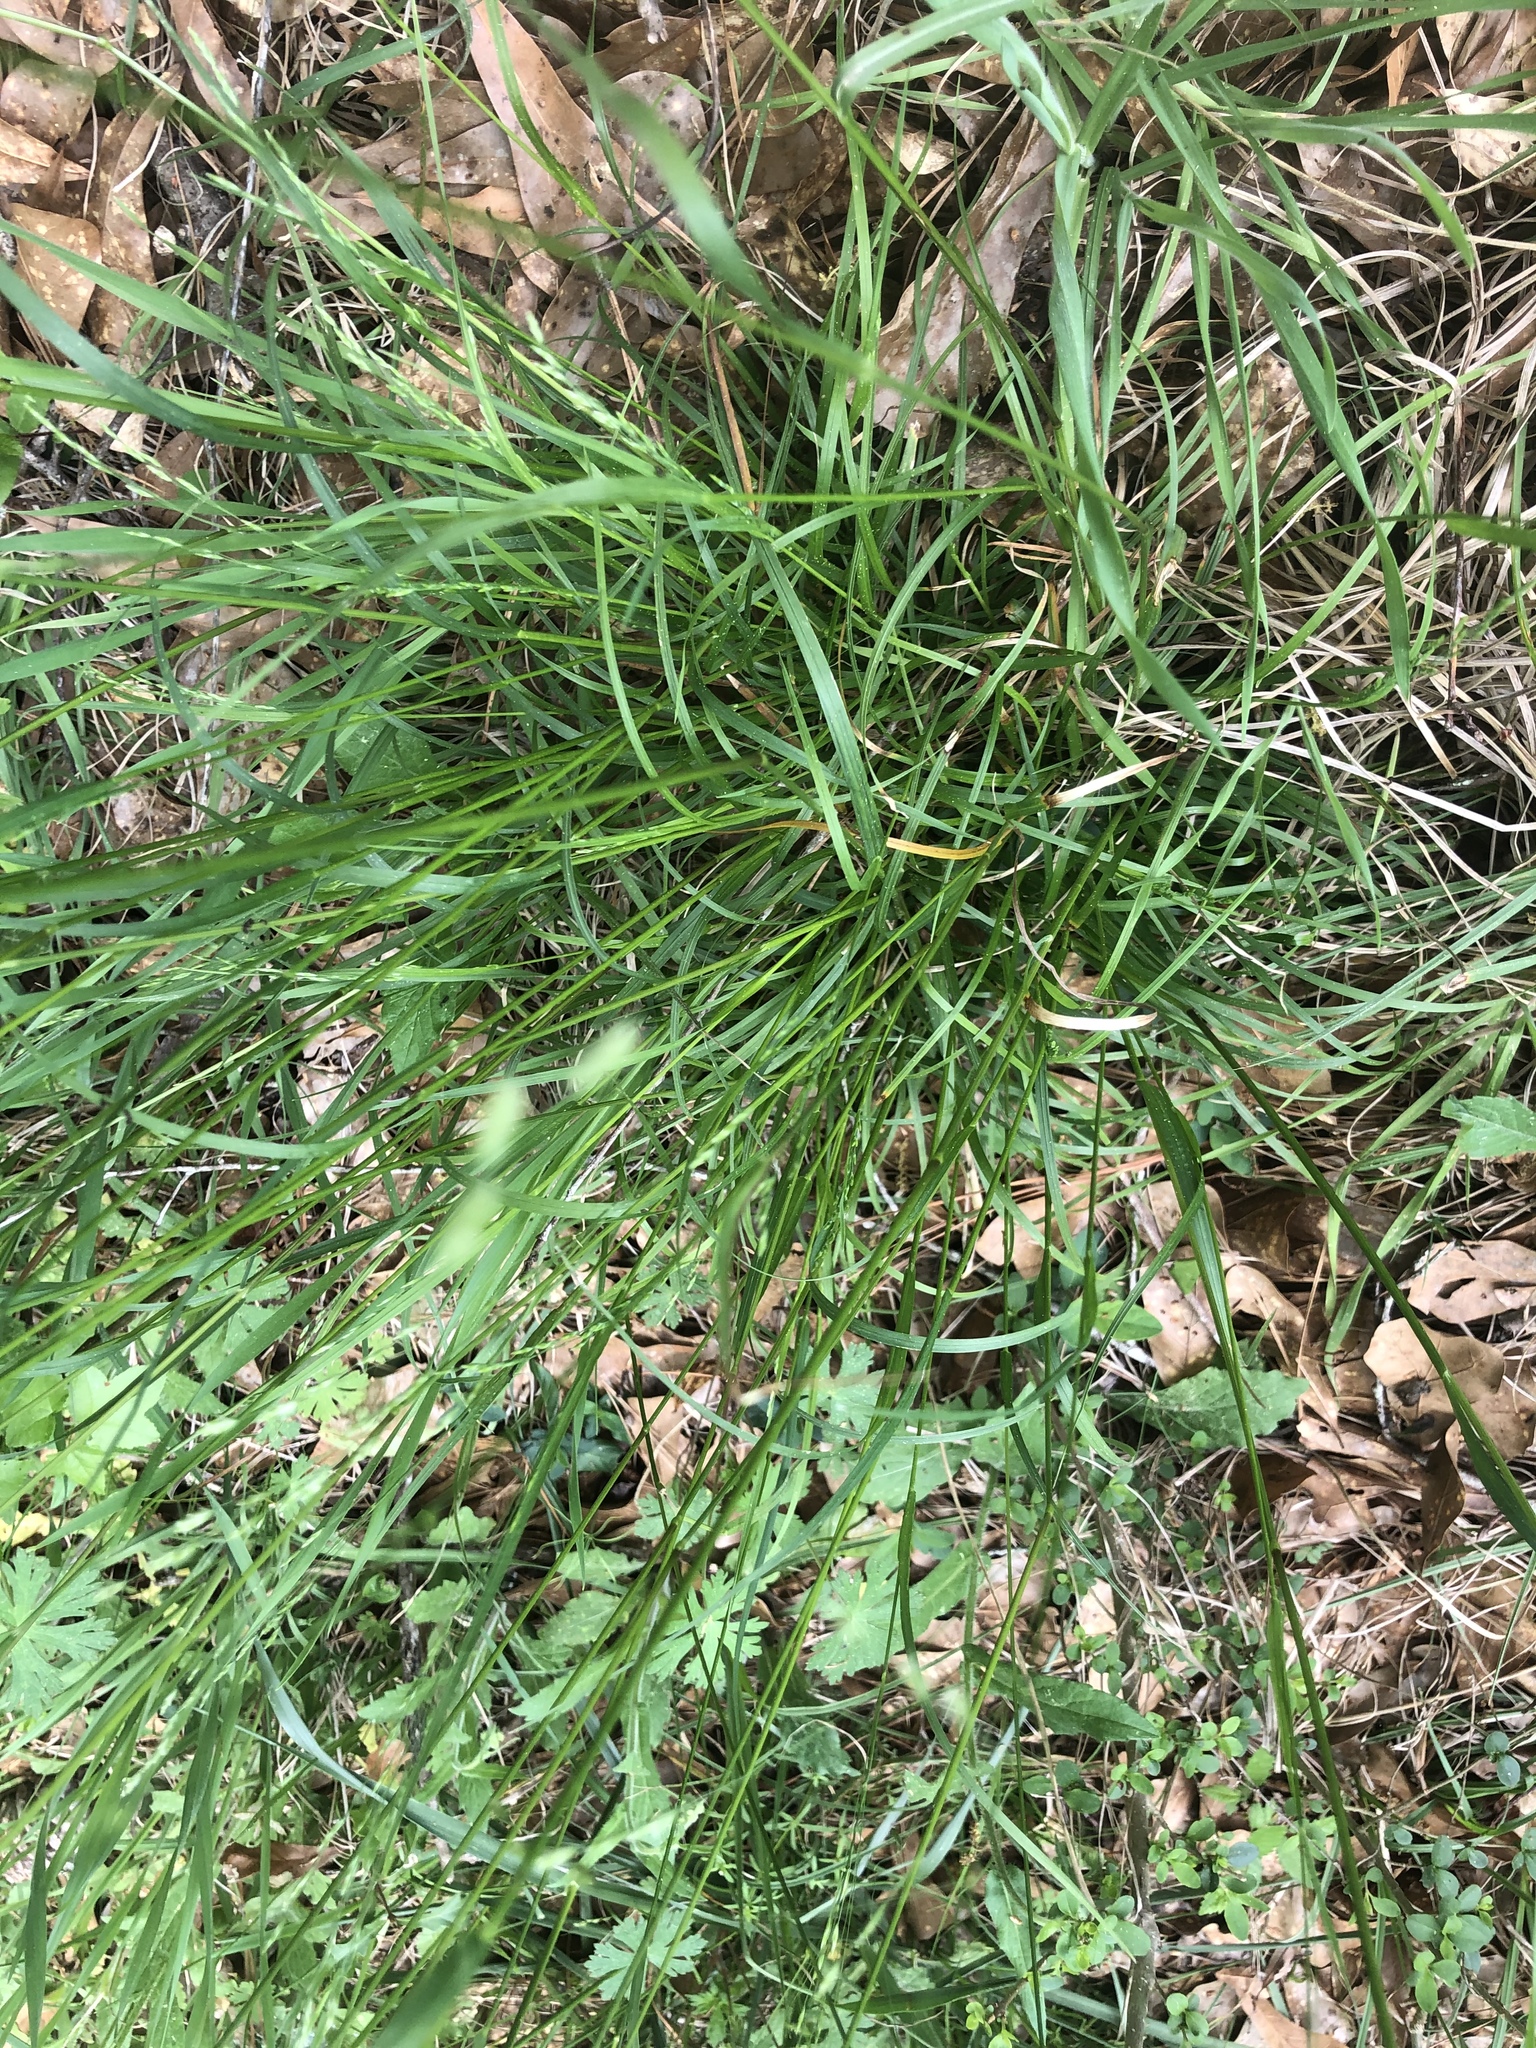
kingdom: Plantae
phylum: Tracheophyta
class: Liliopsida
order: Poales
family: Poaceae
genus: Poa
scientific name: Poa autumnalis
